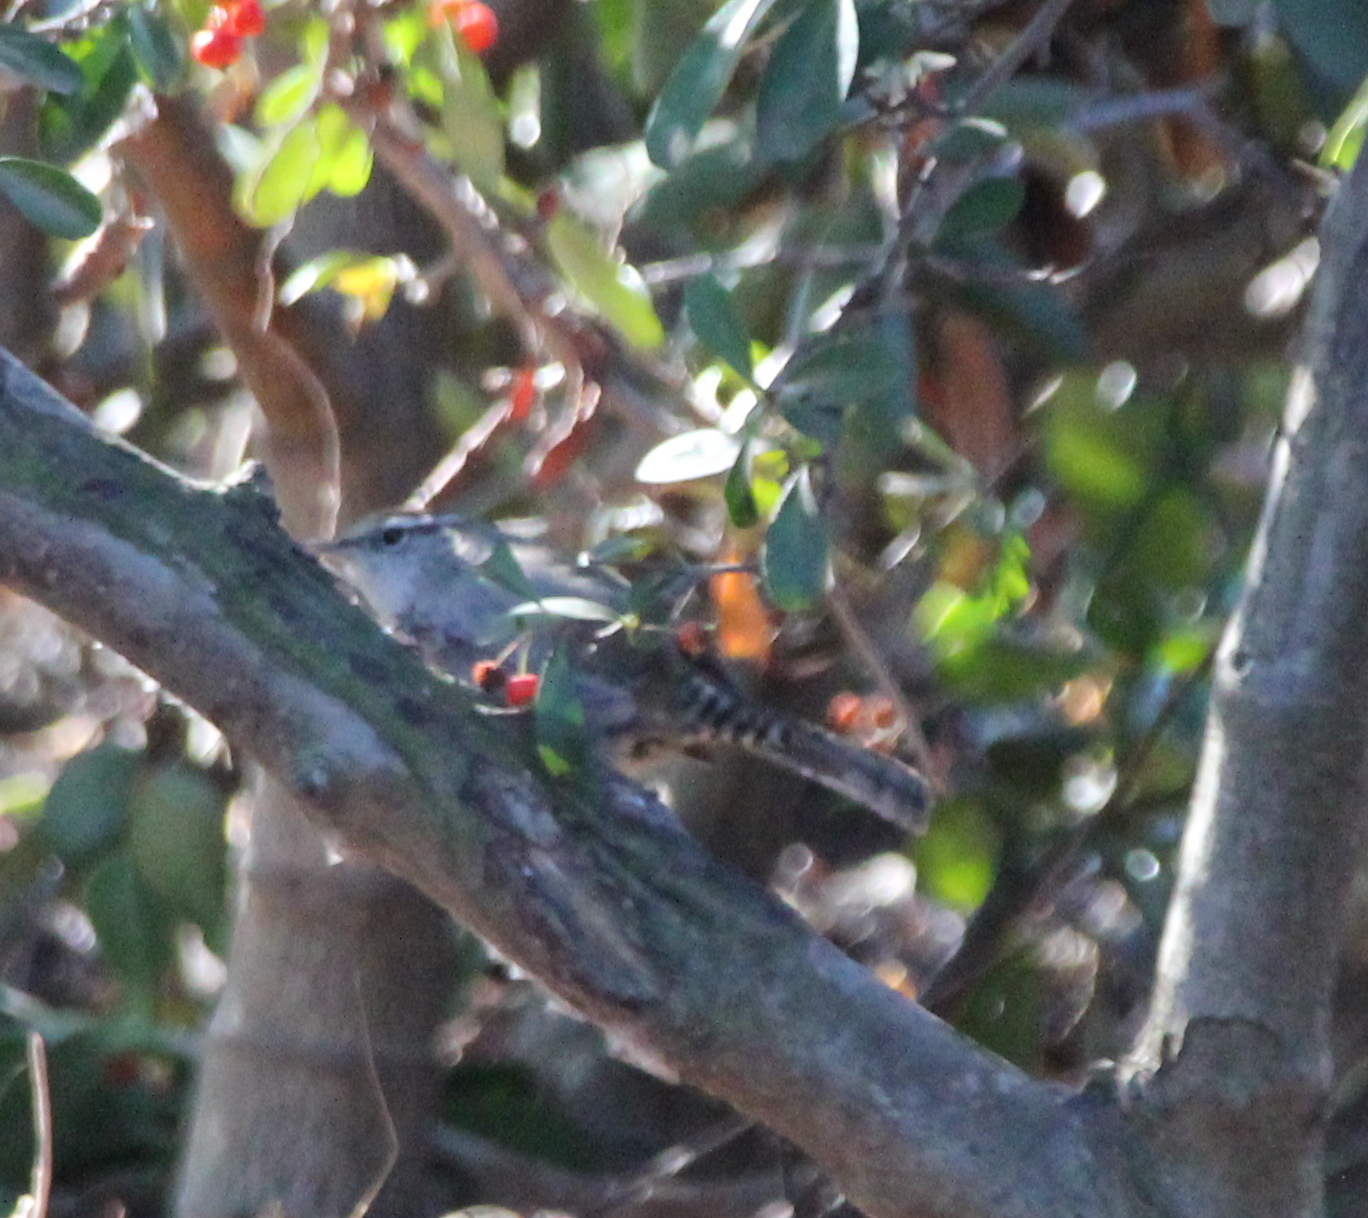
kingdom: Animalia
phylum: Chordata
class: Aves
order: Passeriformes
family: Troglodytidae
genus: Thryomanes
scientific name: Thryomanes bewickii
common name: Bewick's wren
